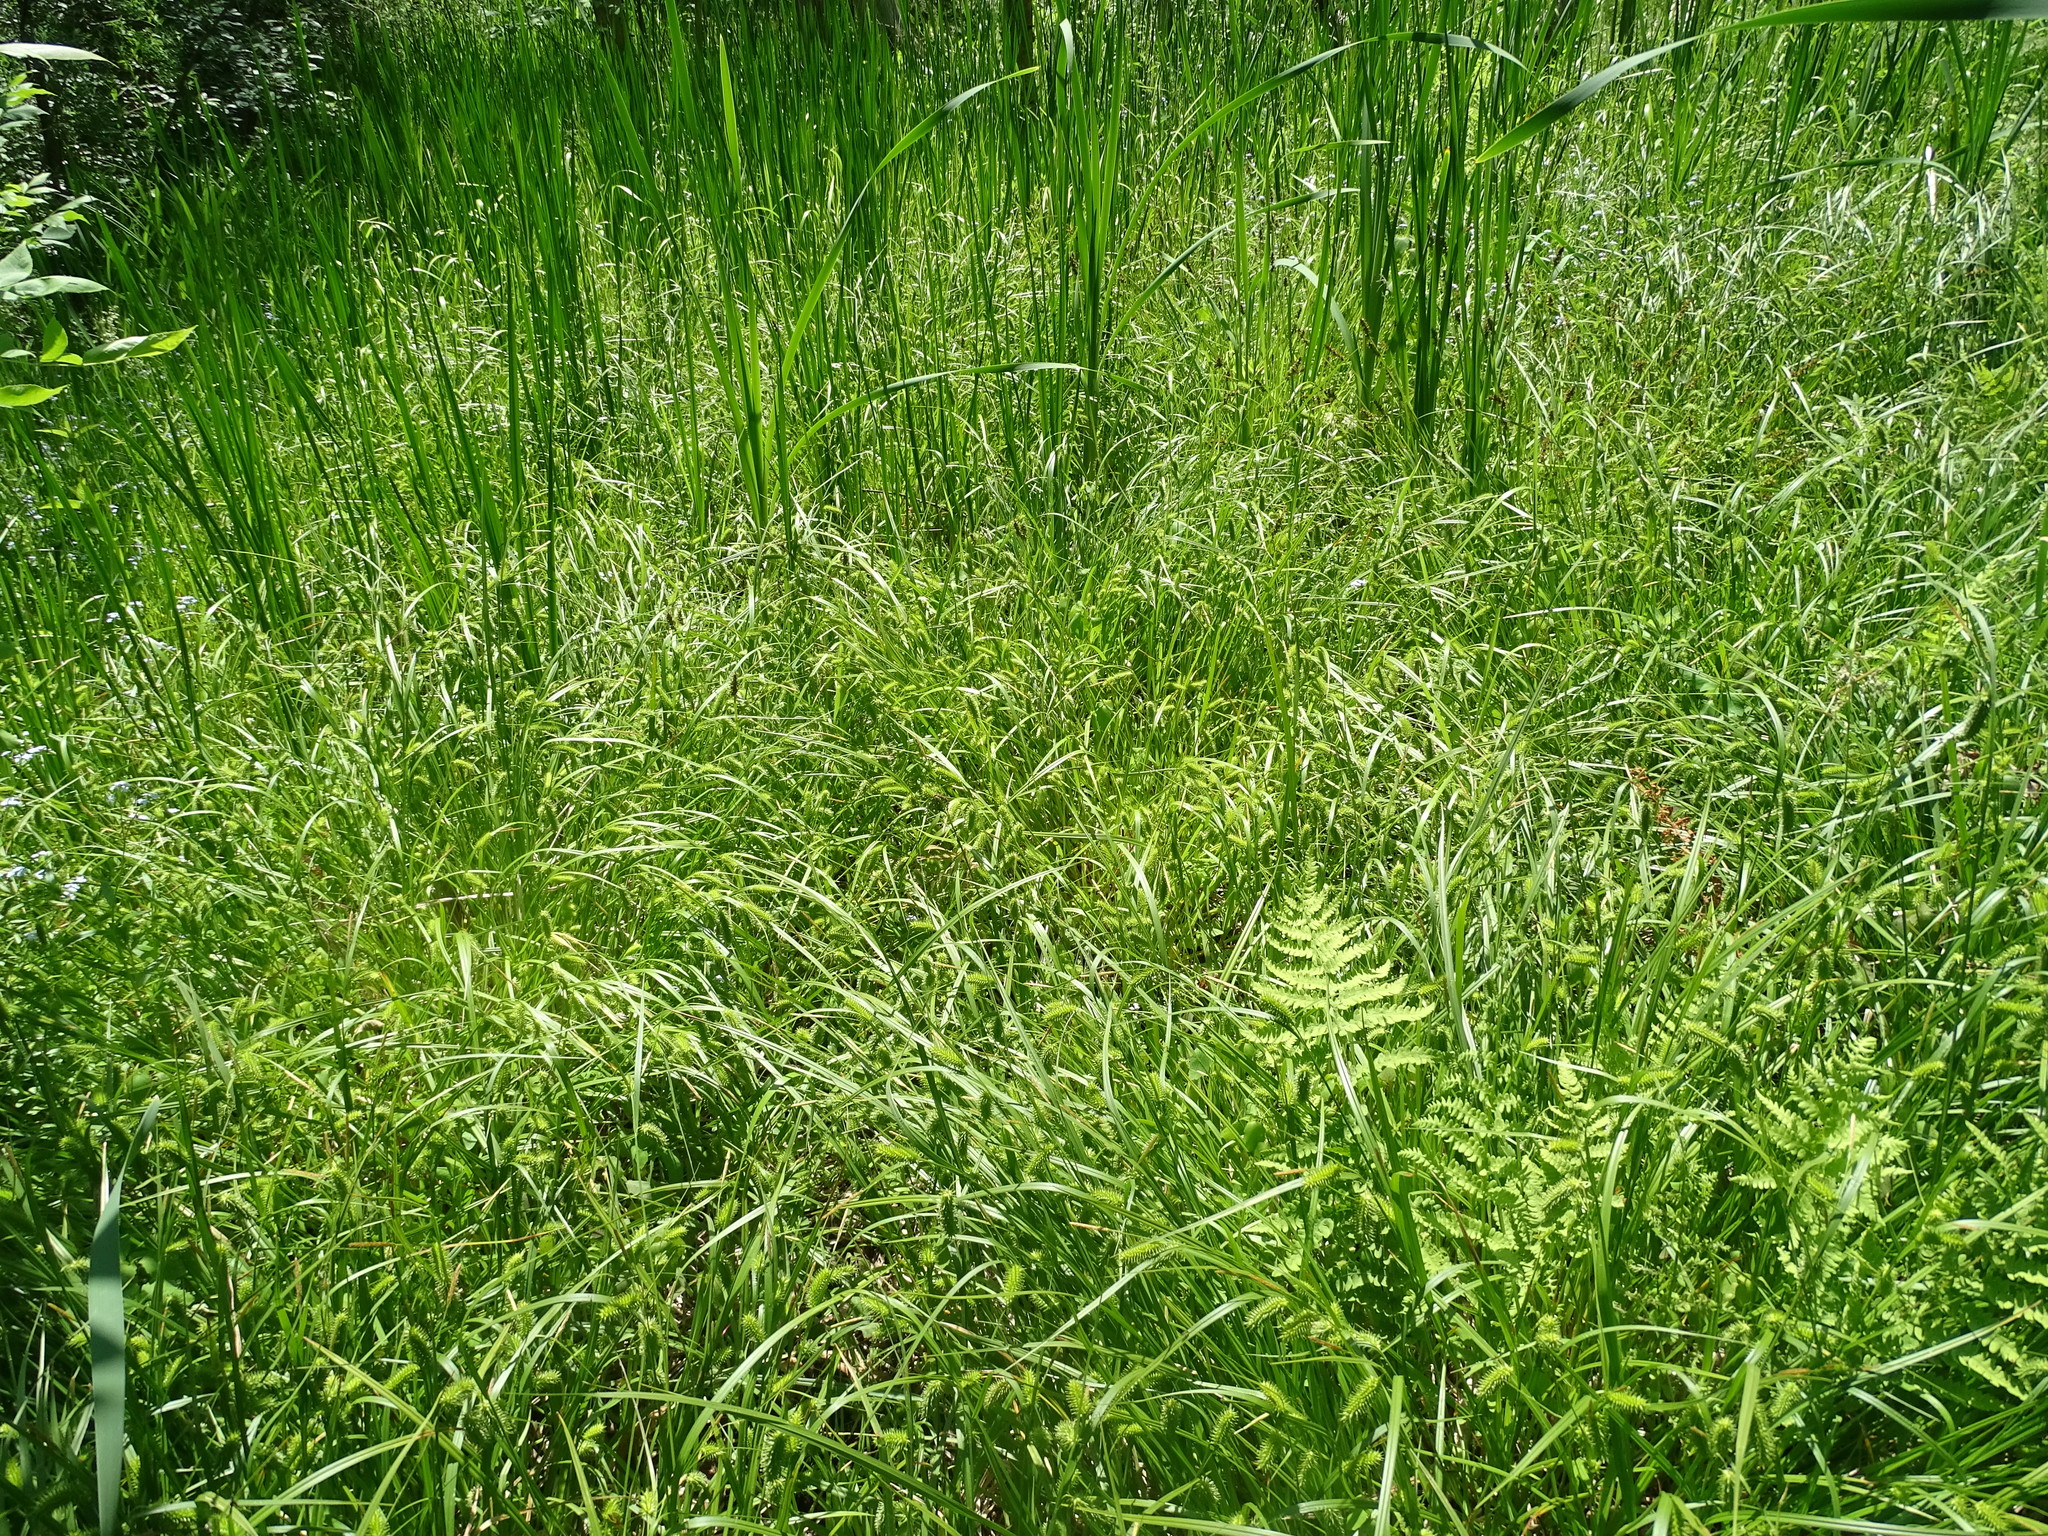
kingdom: Plantae
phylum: Tracheophyta
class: Liliopsida
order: Poales
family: Cyperaceae
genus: Carex
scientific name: Carex hystericina
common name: Bottlebrush sedge
